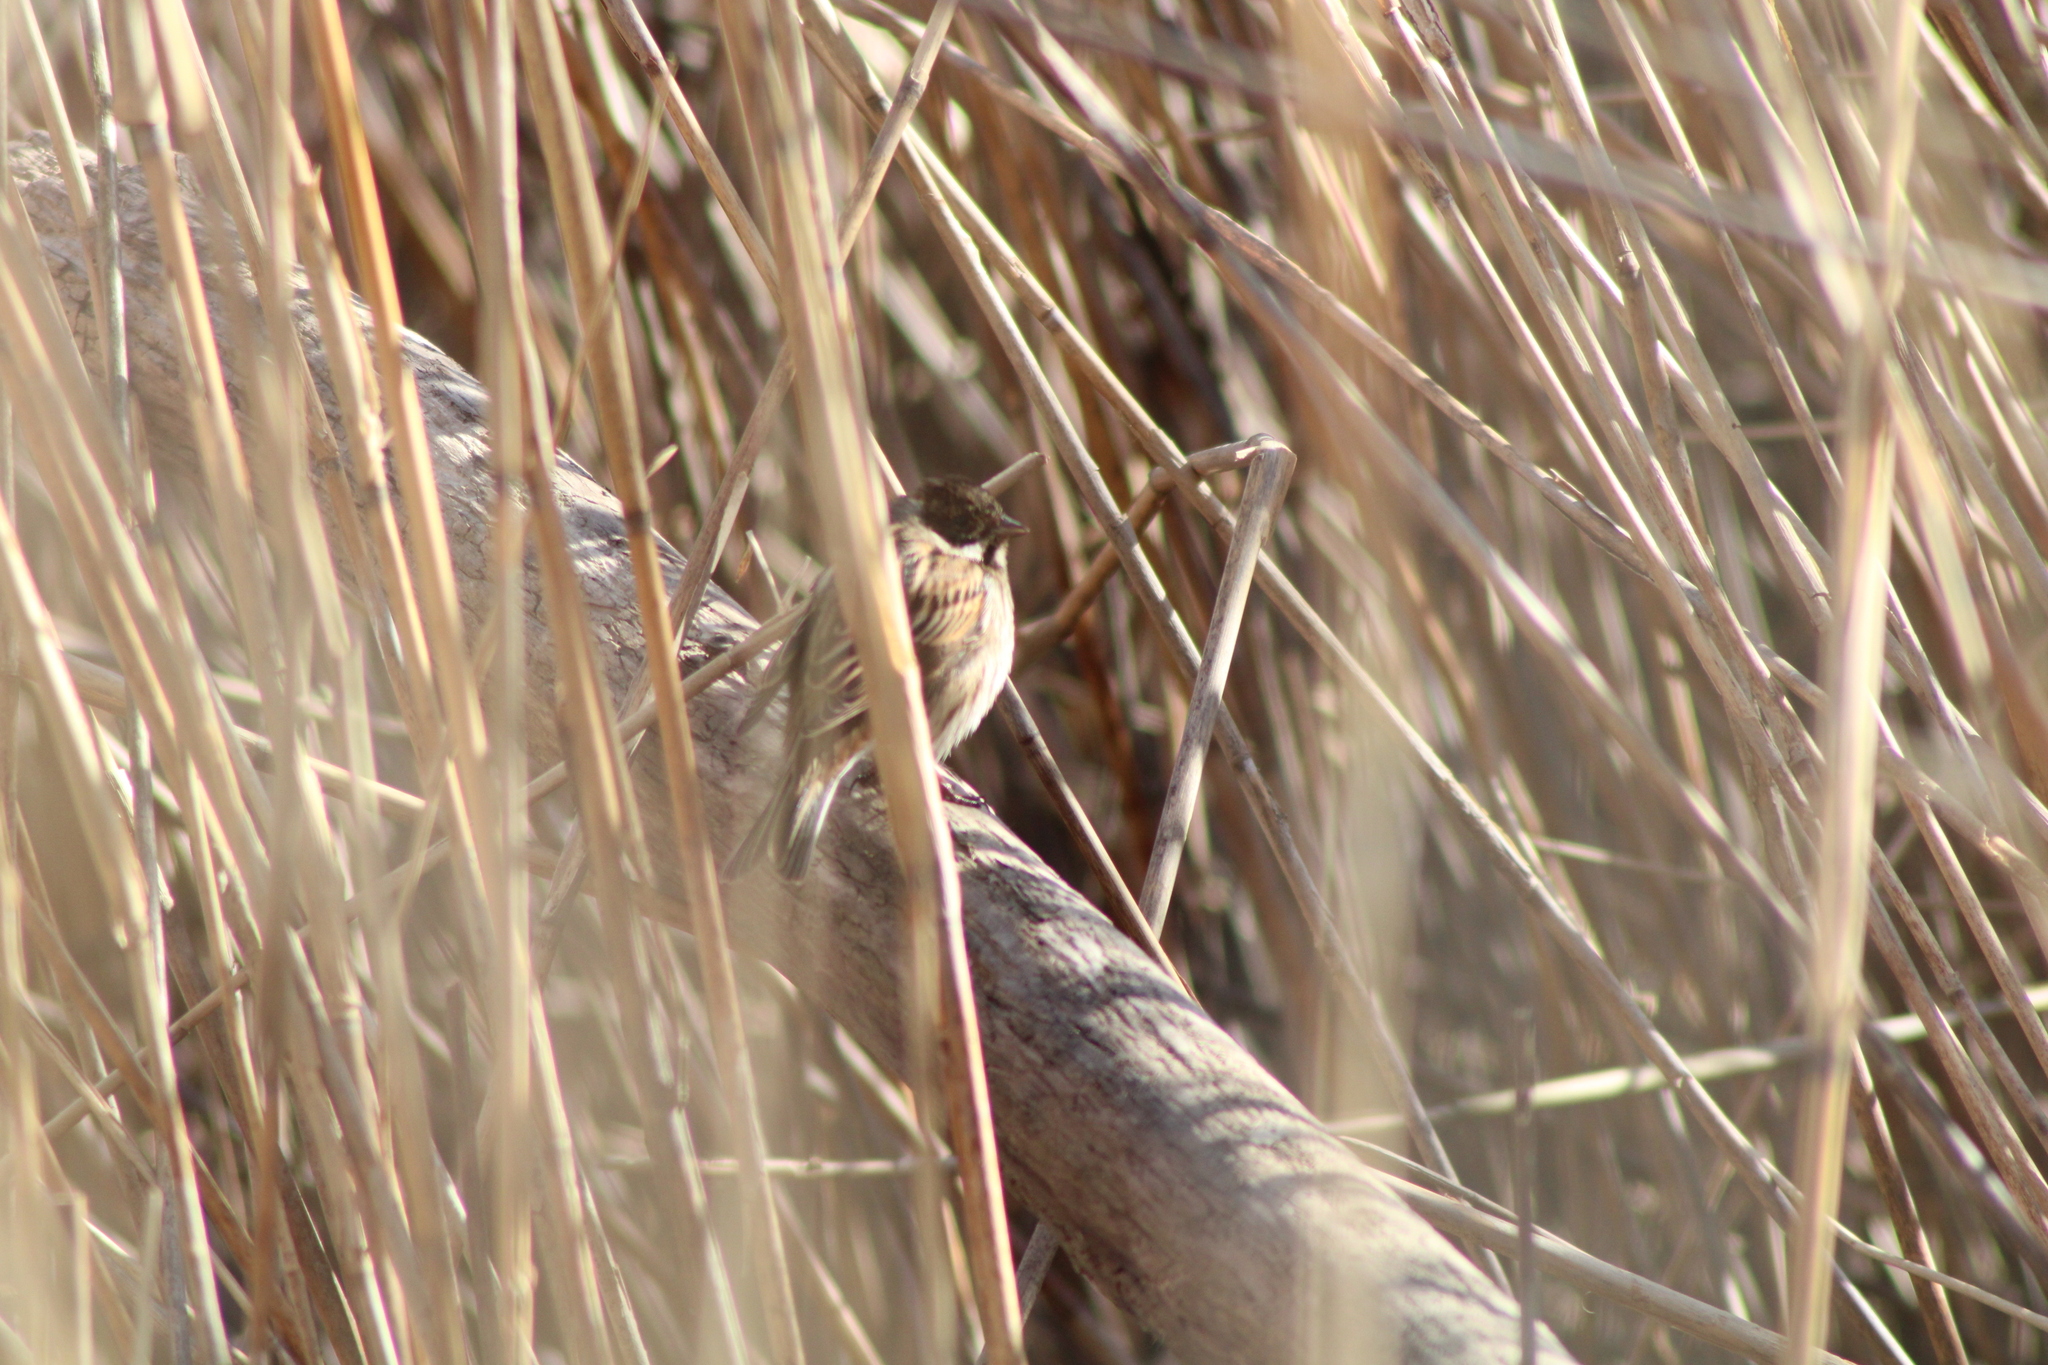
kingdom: Animalia
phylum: Chordata
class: Aves
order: Passeriformes
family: Emberizidae
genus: Emberiza
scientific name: Emberiza schoeniclus
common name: Reed bunting
